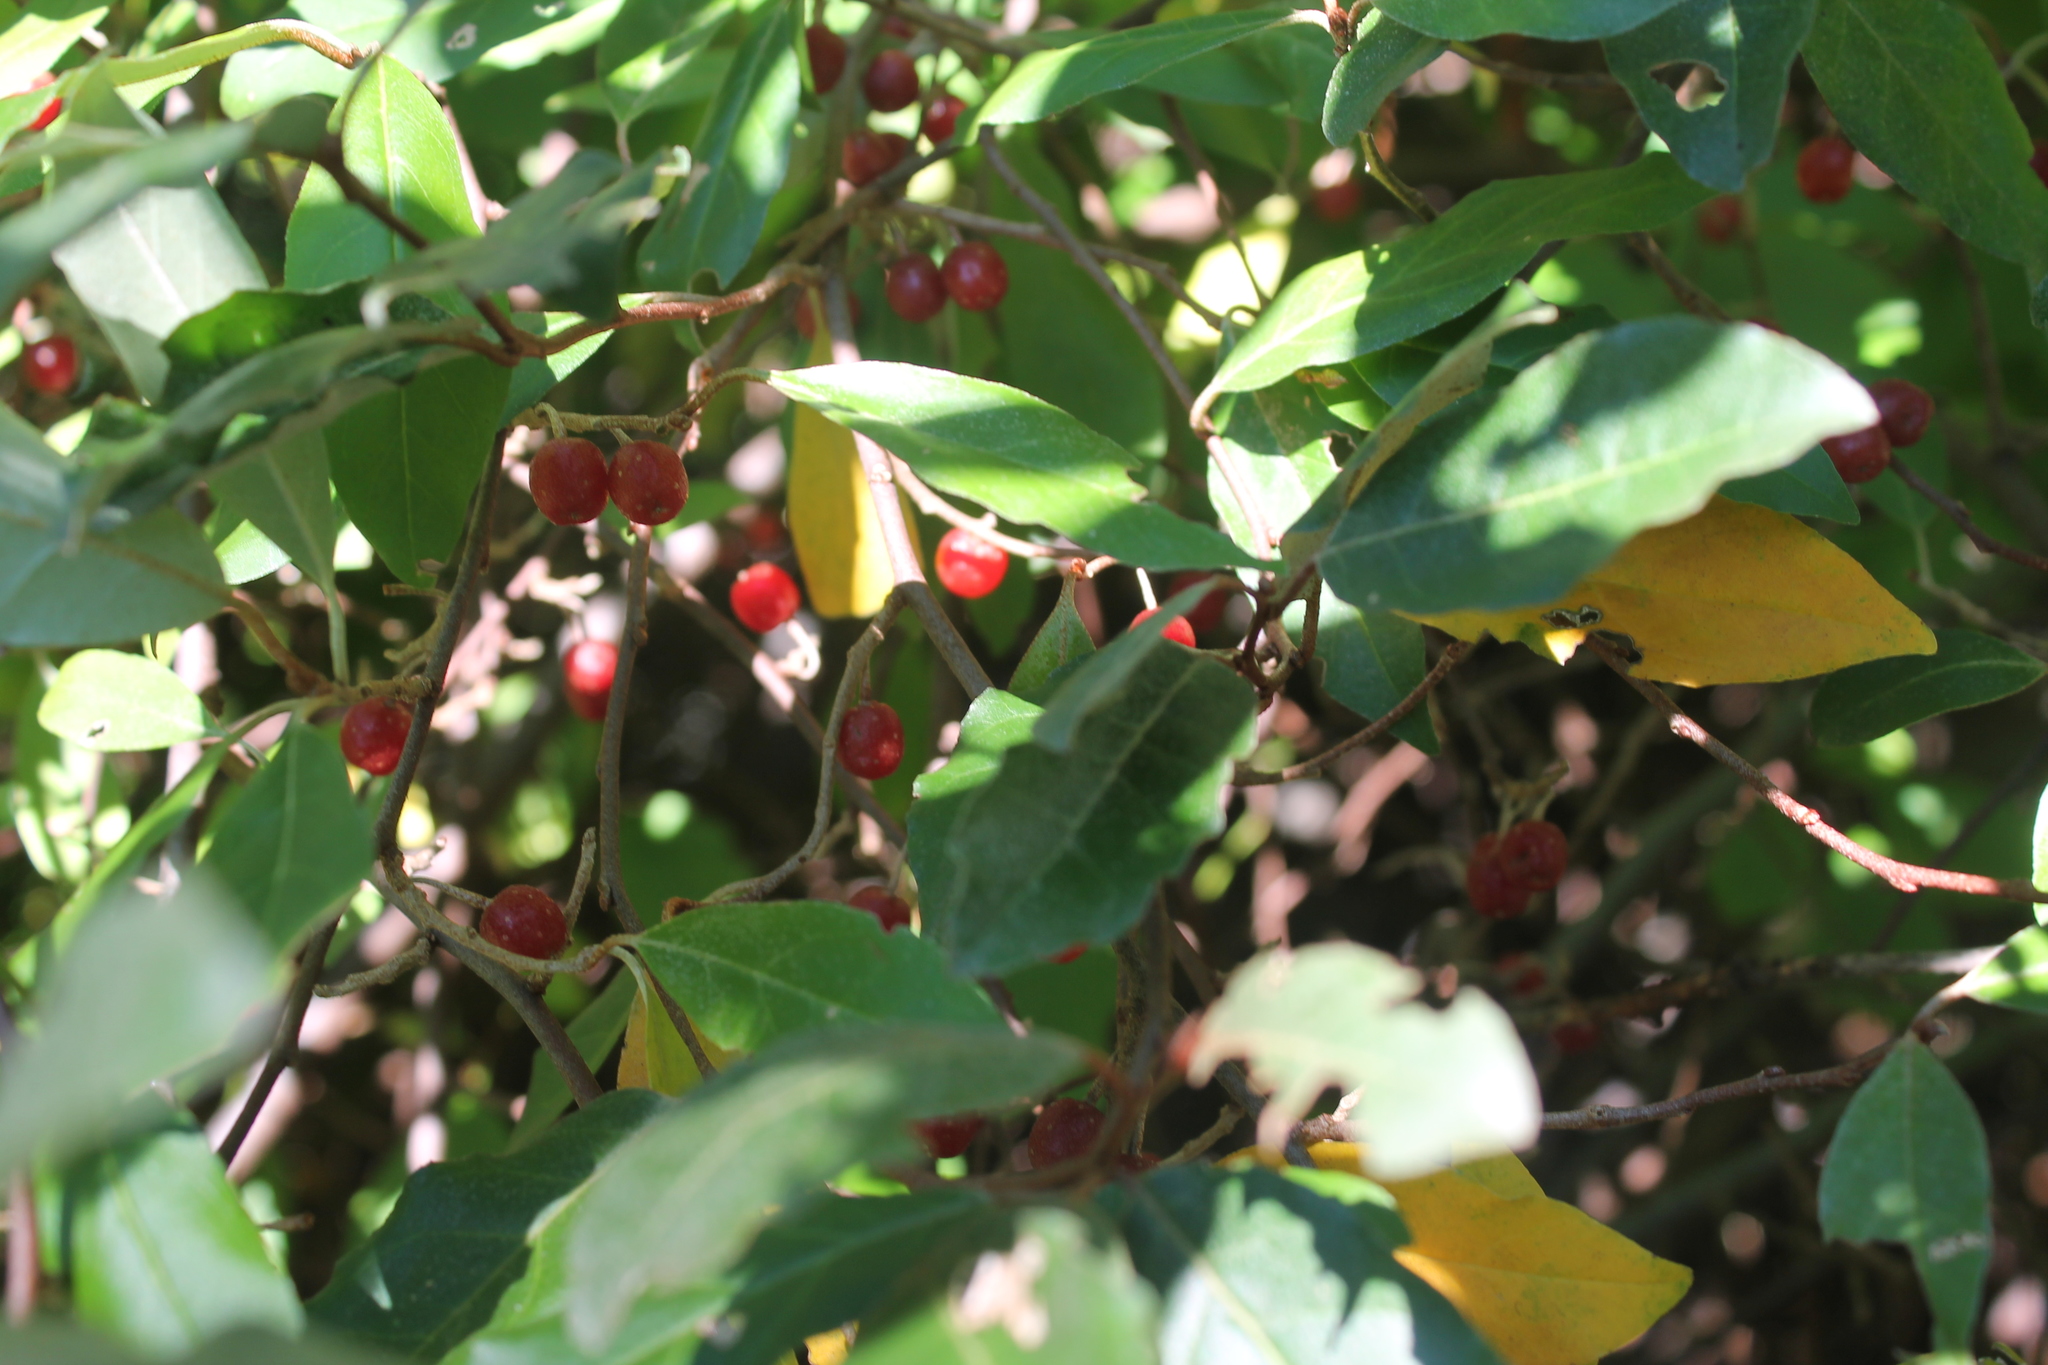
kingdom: Plantae
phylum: Tracheophyta
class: Magnoliopsida
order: Rosales
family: Elaeagnaceae
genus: Elaeagnus
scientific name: Elaeagnus umbellata
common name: Autumn olive
